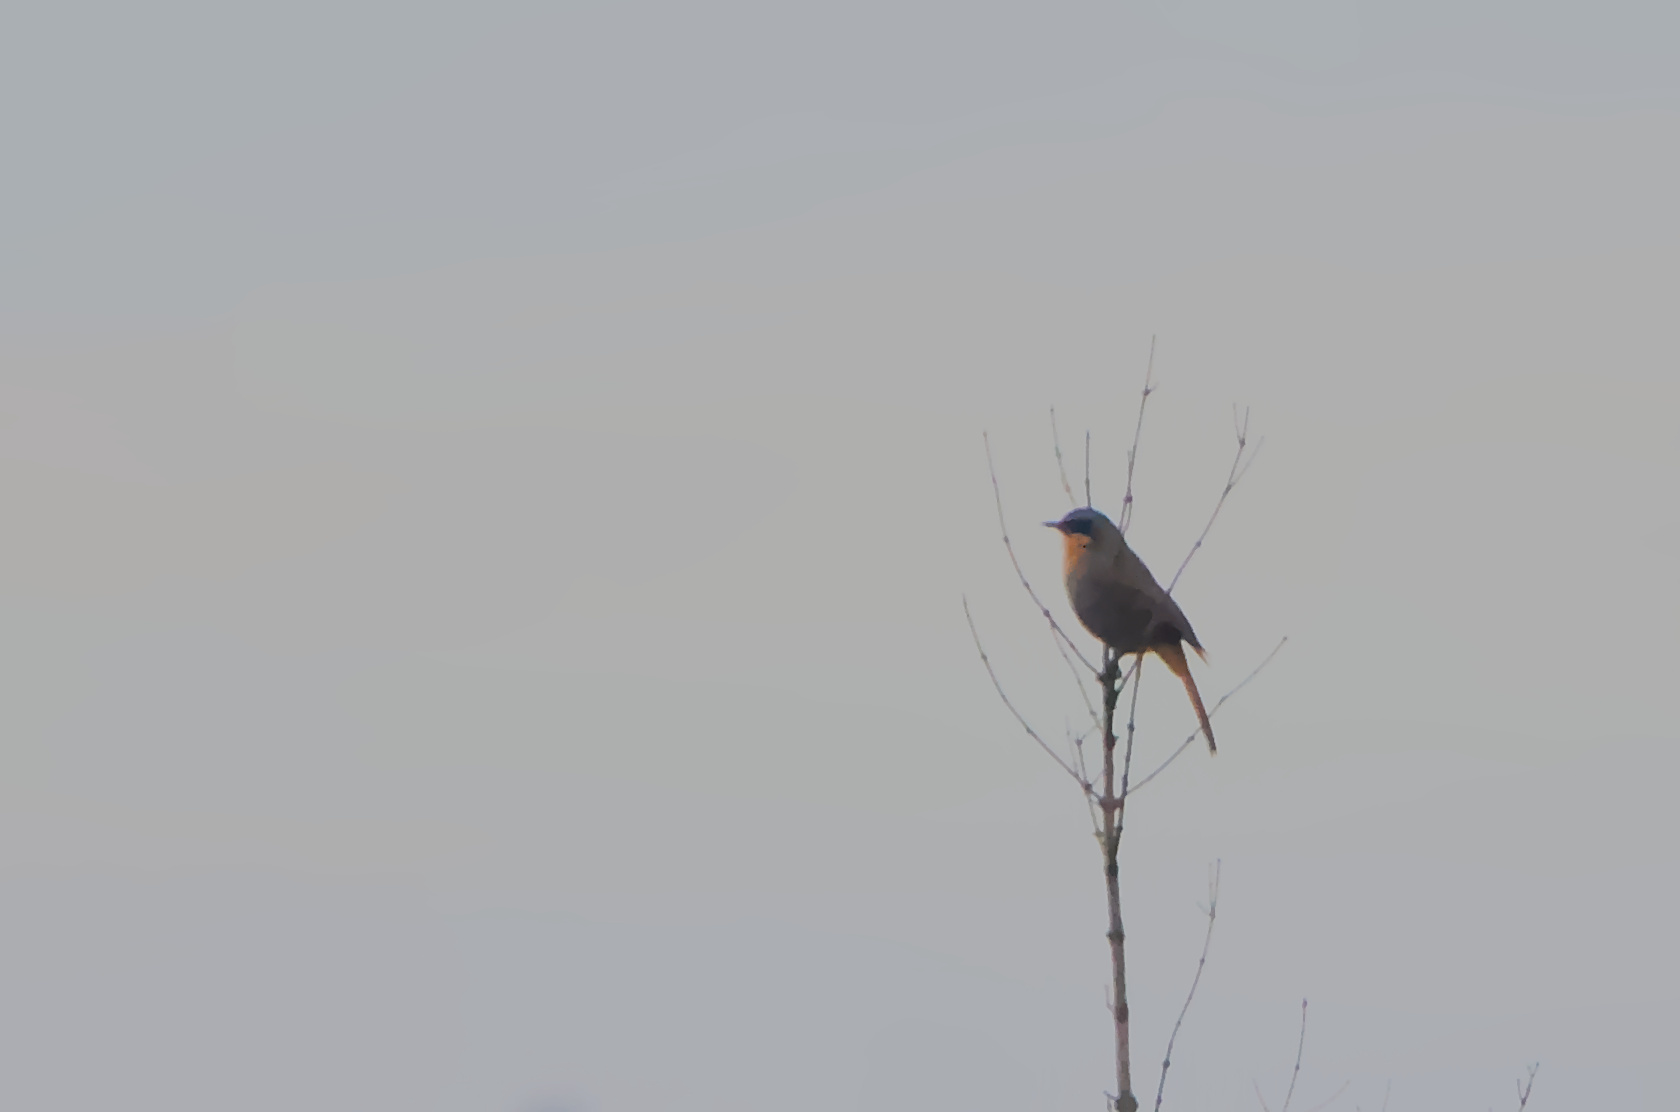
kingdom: Animalia
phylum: Chordata
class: Aves
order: Passeriformes
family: Muscicapidae
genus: Cossypha
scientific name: Cossypha caffra
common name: Cape robin-chat
